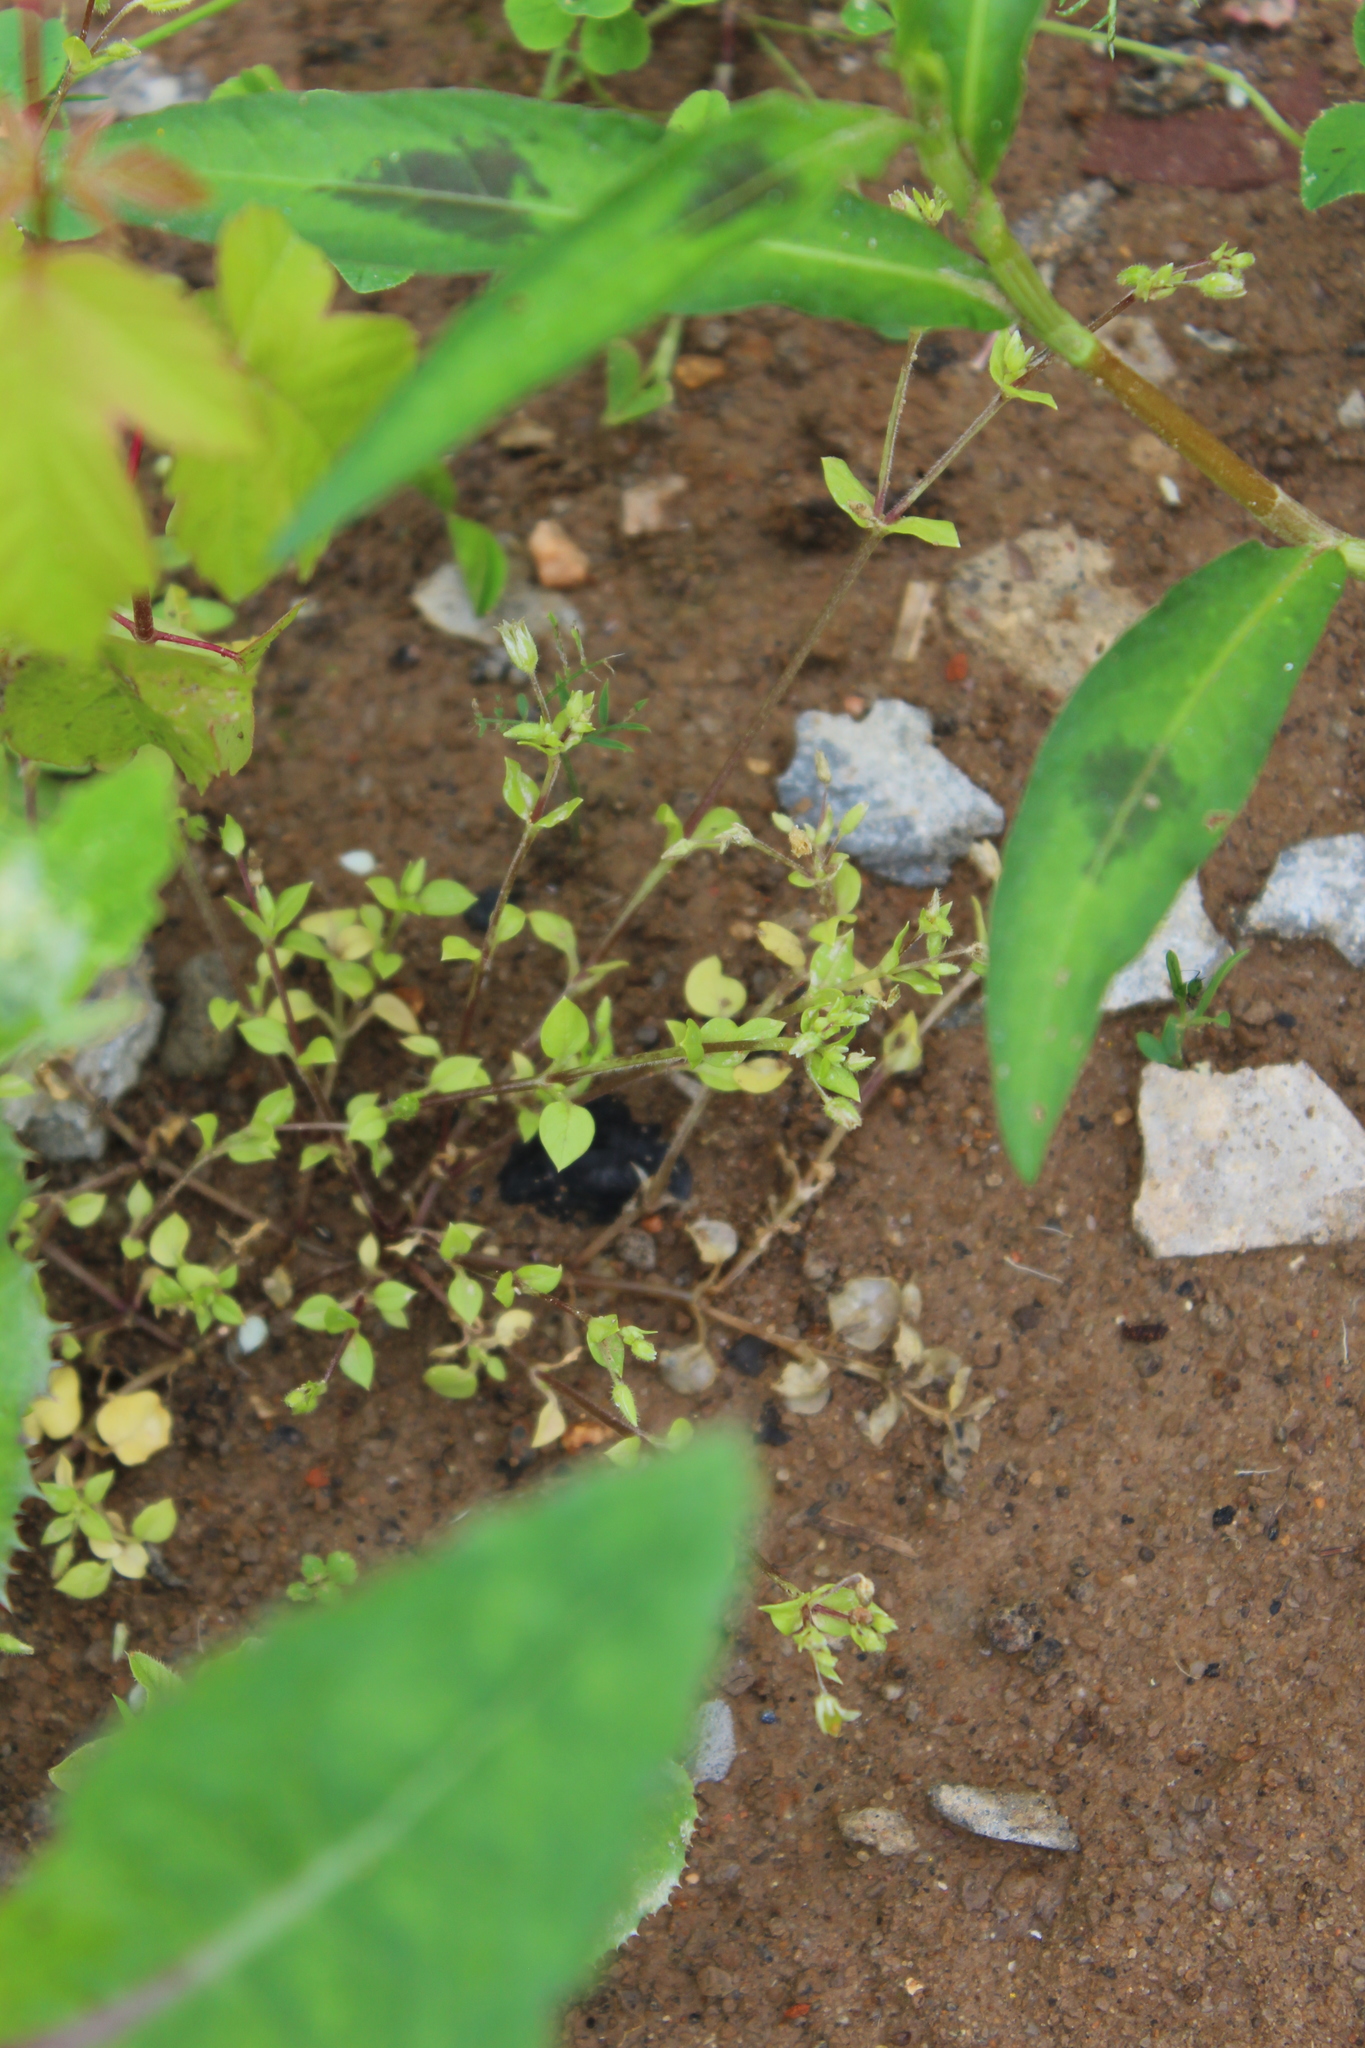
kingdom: Plantae
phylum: Tracheophyta
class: Magnoliopsida
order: Caryophyllales
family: Caryophyllaceae
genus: Stellaria
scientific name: Stellaria media
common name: Common chickweed
